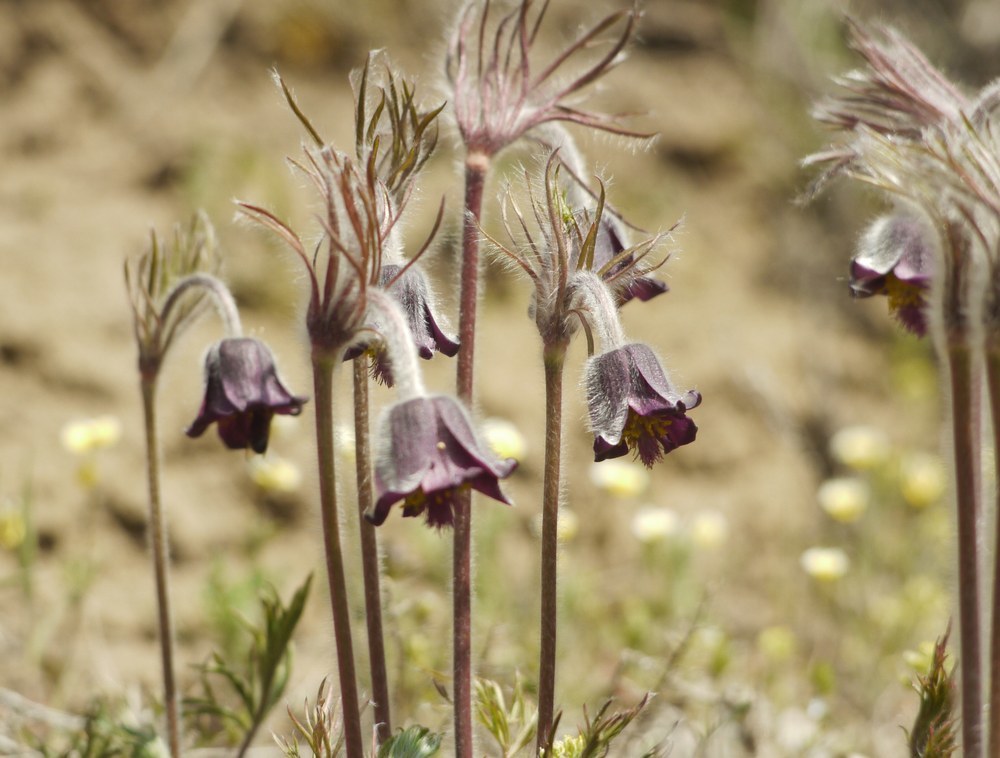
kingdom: Plantae
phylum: Tracheophyta
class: Magnoliopsida
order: Ranunculales
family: Ranunculaceae
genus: Pulsatilla
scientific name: Pulsatilla pratensis
